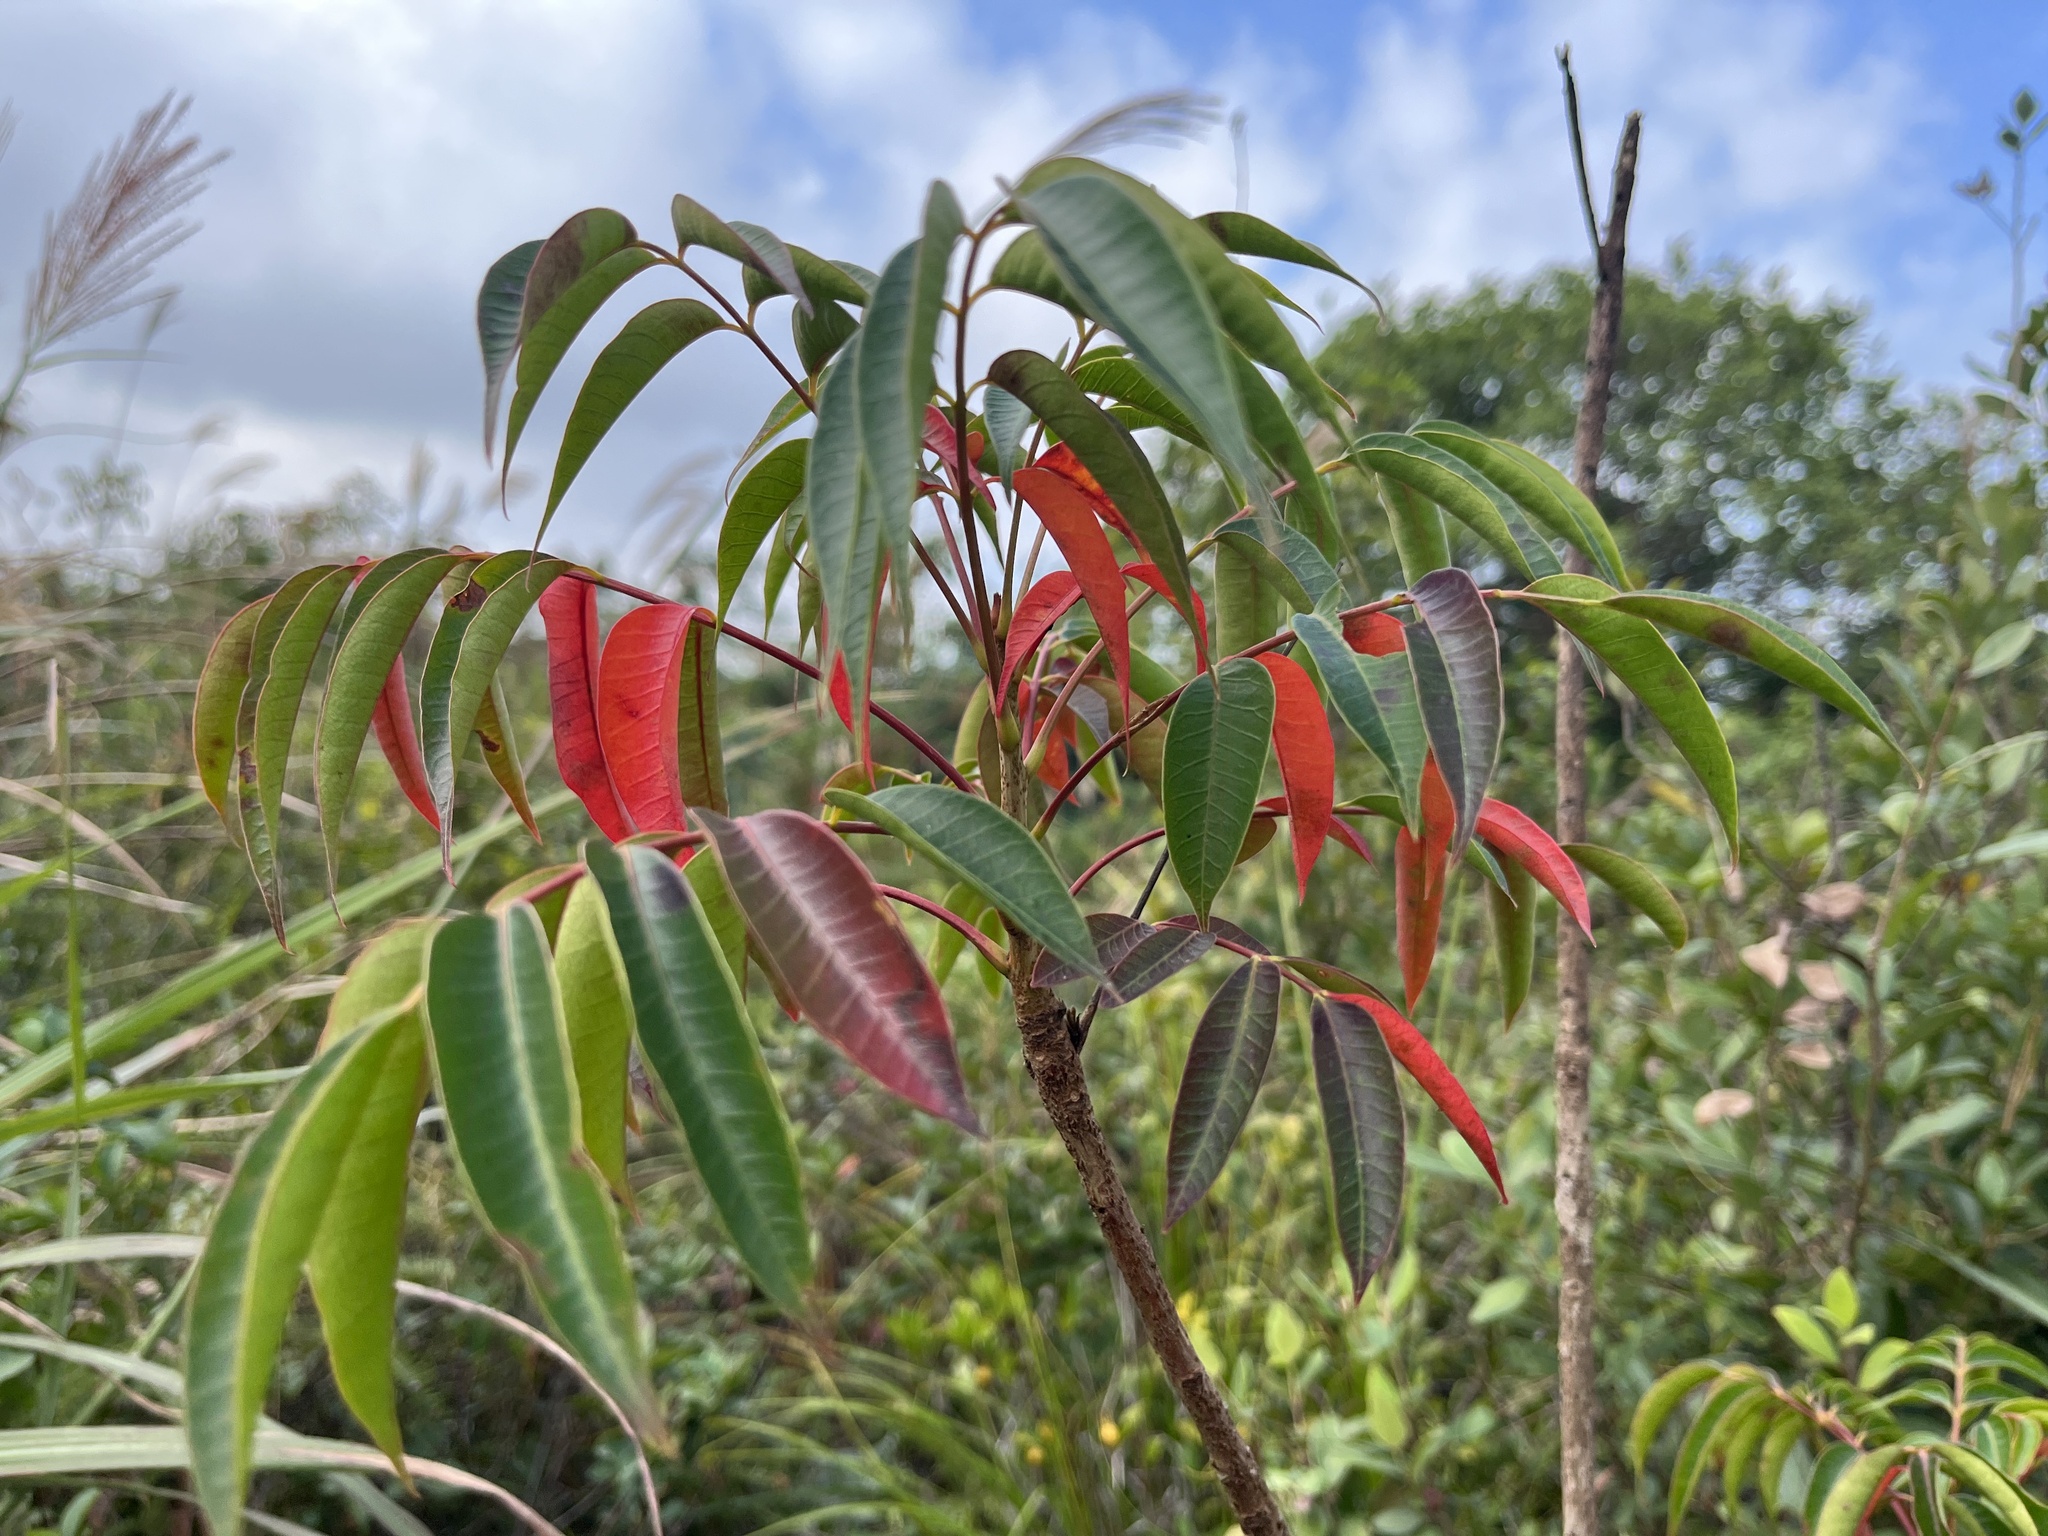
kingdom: Plantae
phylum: Tracheophyta
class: Magnoliopsida
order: Sapindales
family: Anacardiaceae
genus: Toxicodendron
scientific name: Toxicodendron succedaneum
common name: Wax tree
